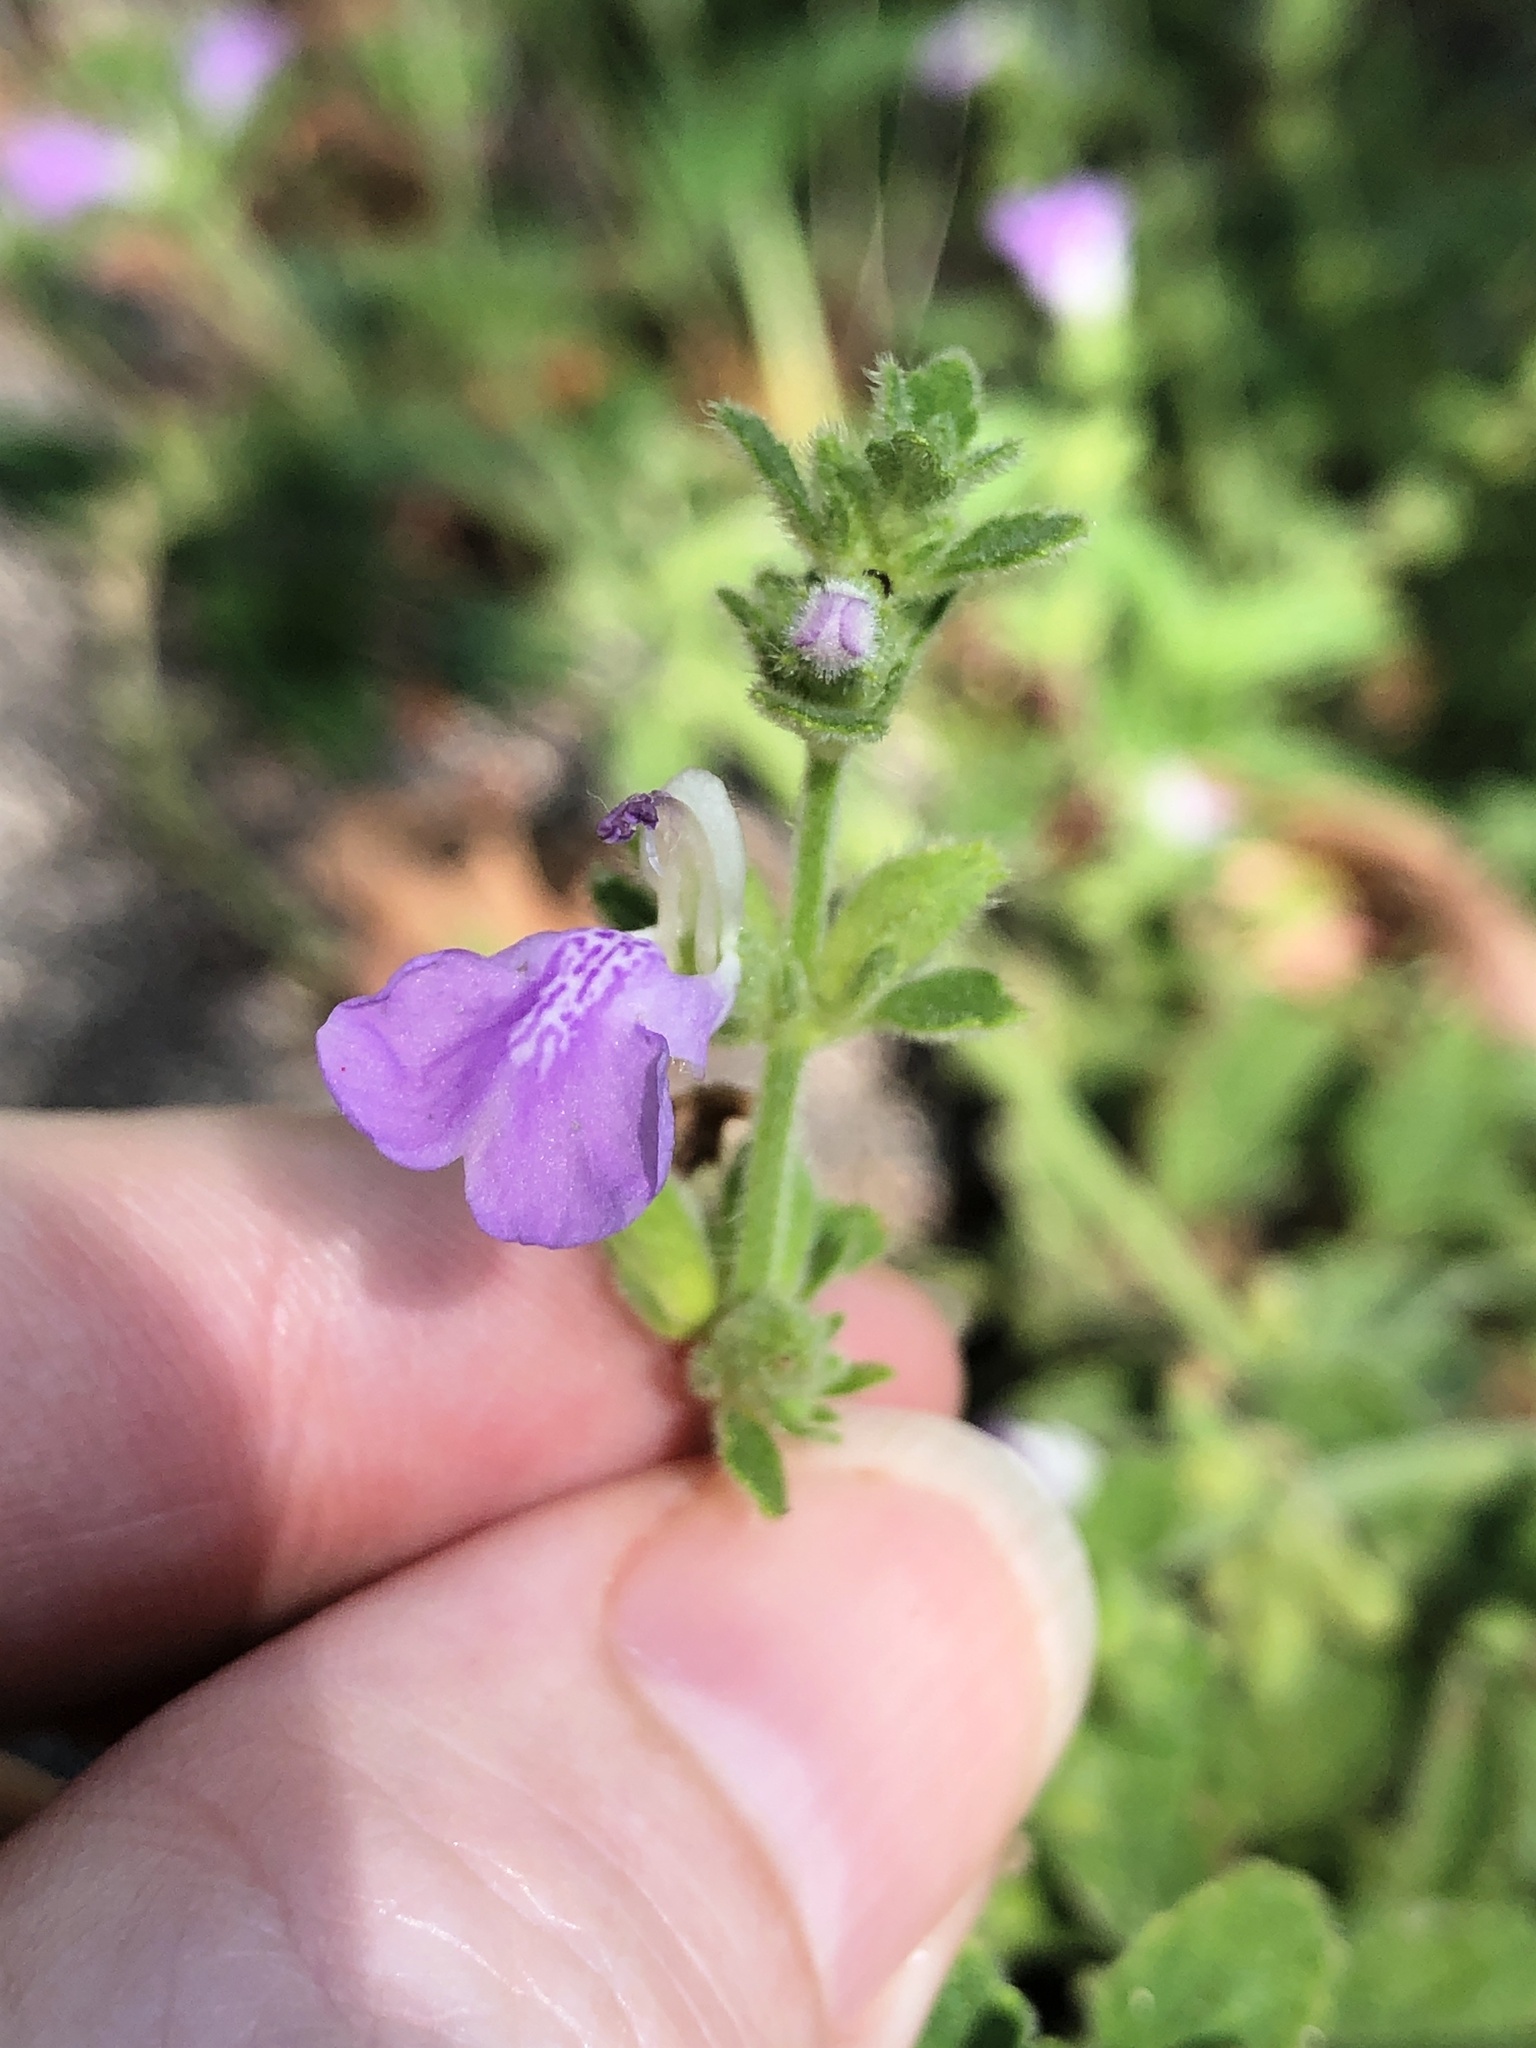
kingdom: Plantae
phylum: Tracheophyta
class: Magnoliopsida
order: Lamiales
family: Lamiaceae
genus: Anisomeles
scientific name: Anisomeles moschata
